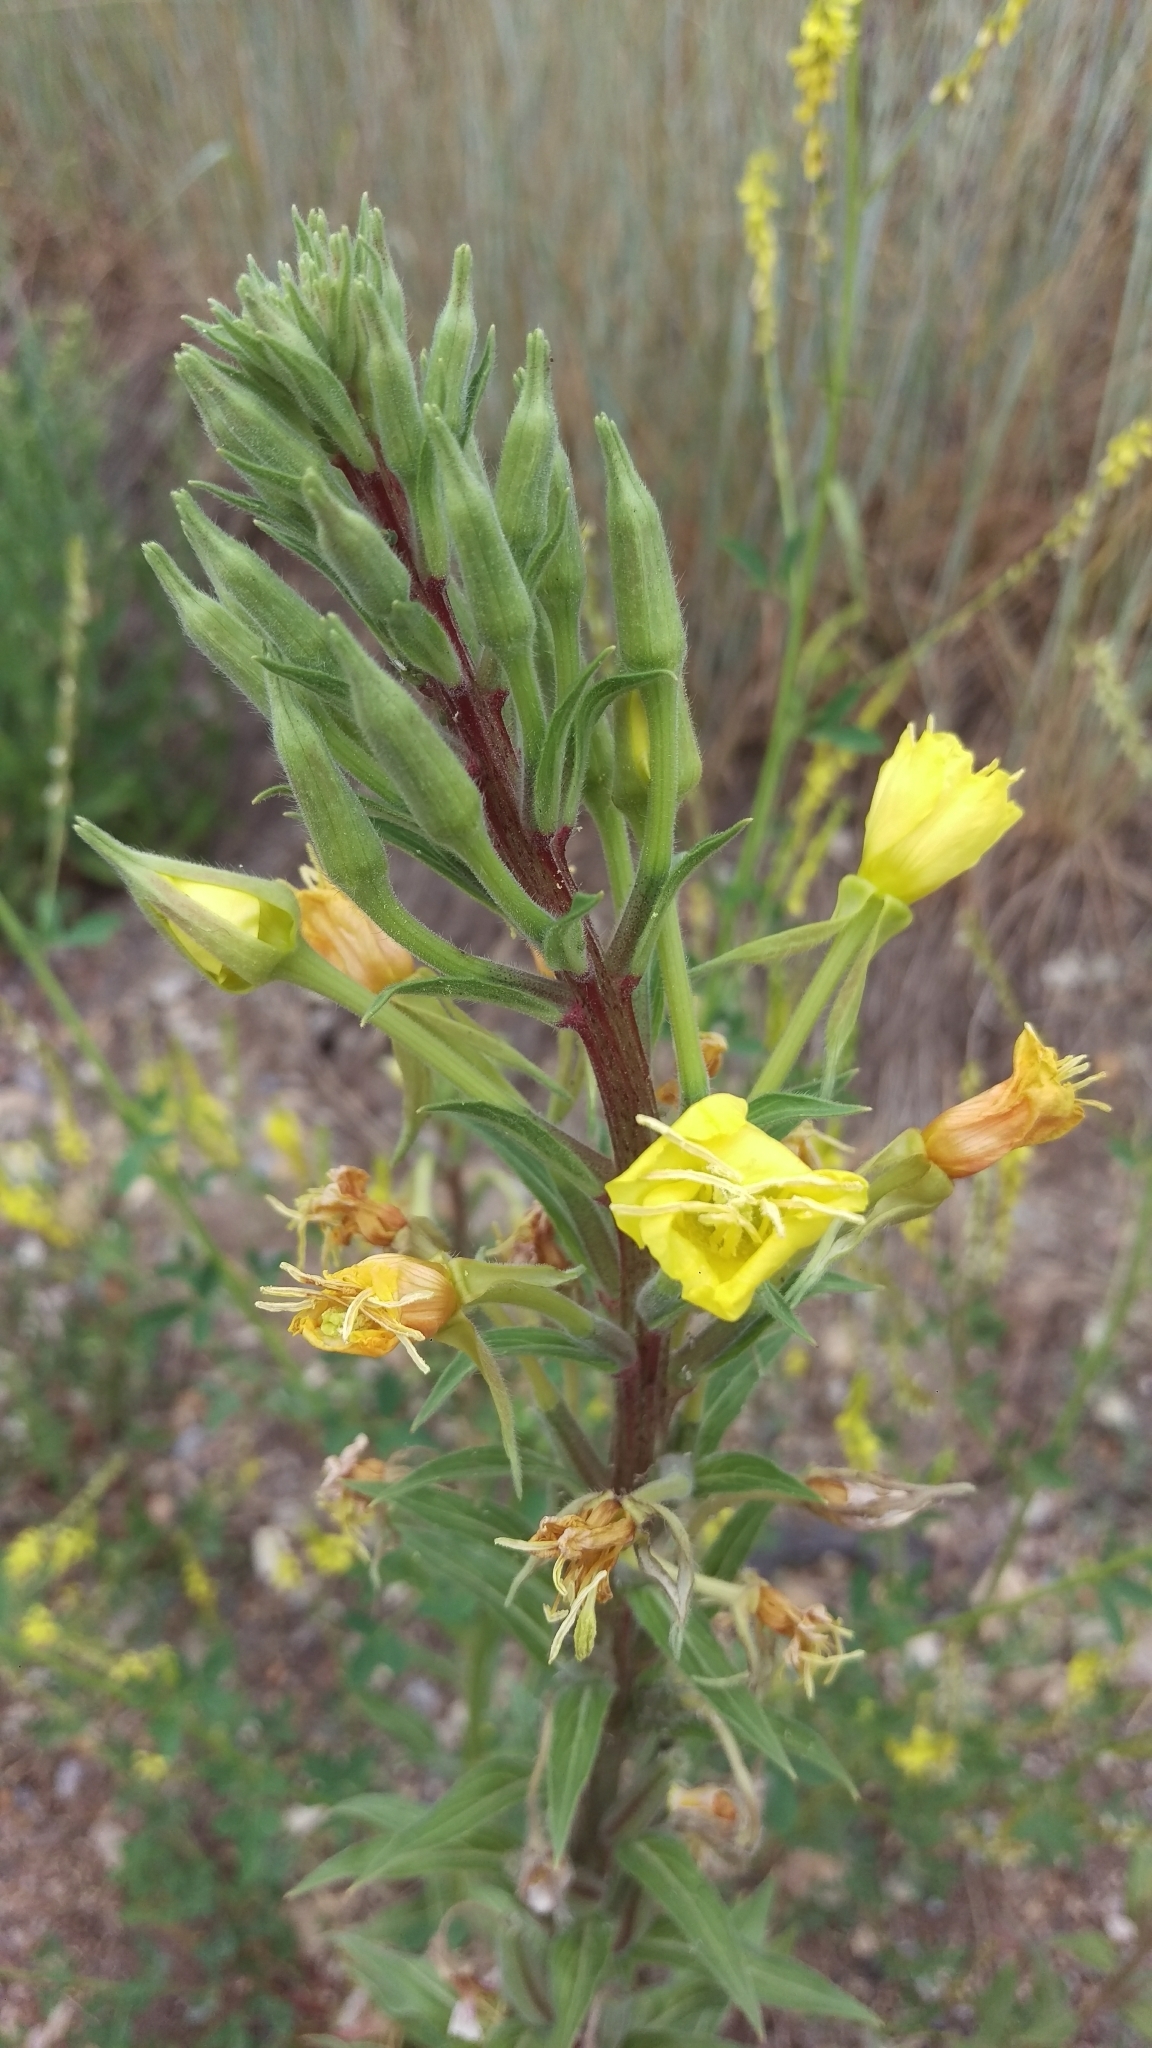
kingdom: Plantae
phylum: Tracheophyta
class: Magnoliopsida
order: Myrtales
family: Onagraceae
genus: Oenothera
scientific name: Oenothera elata
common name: Hooker's evening-primrose
